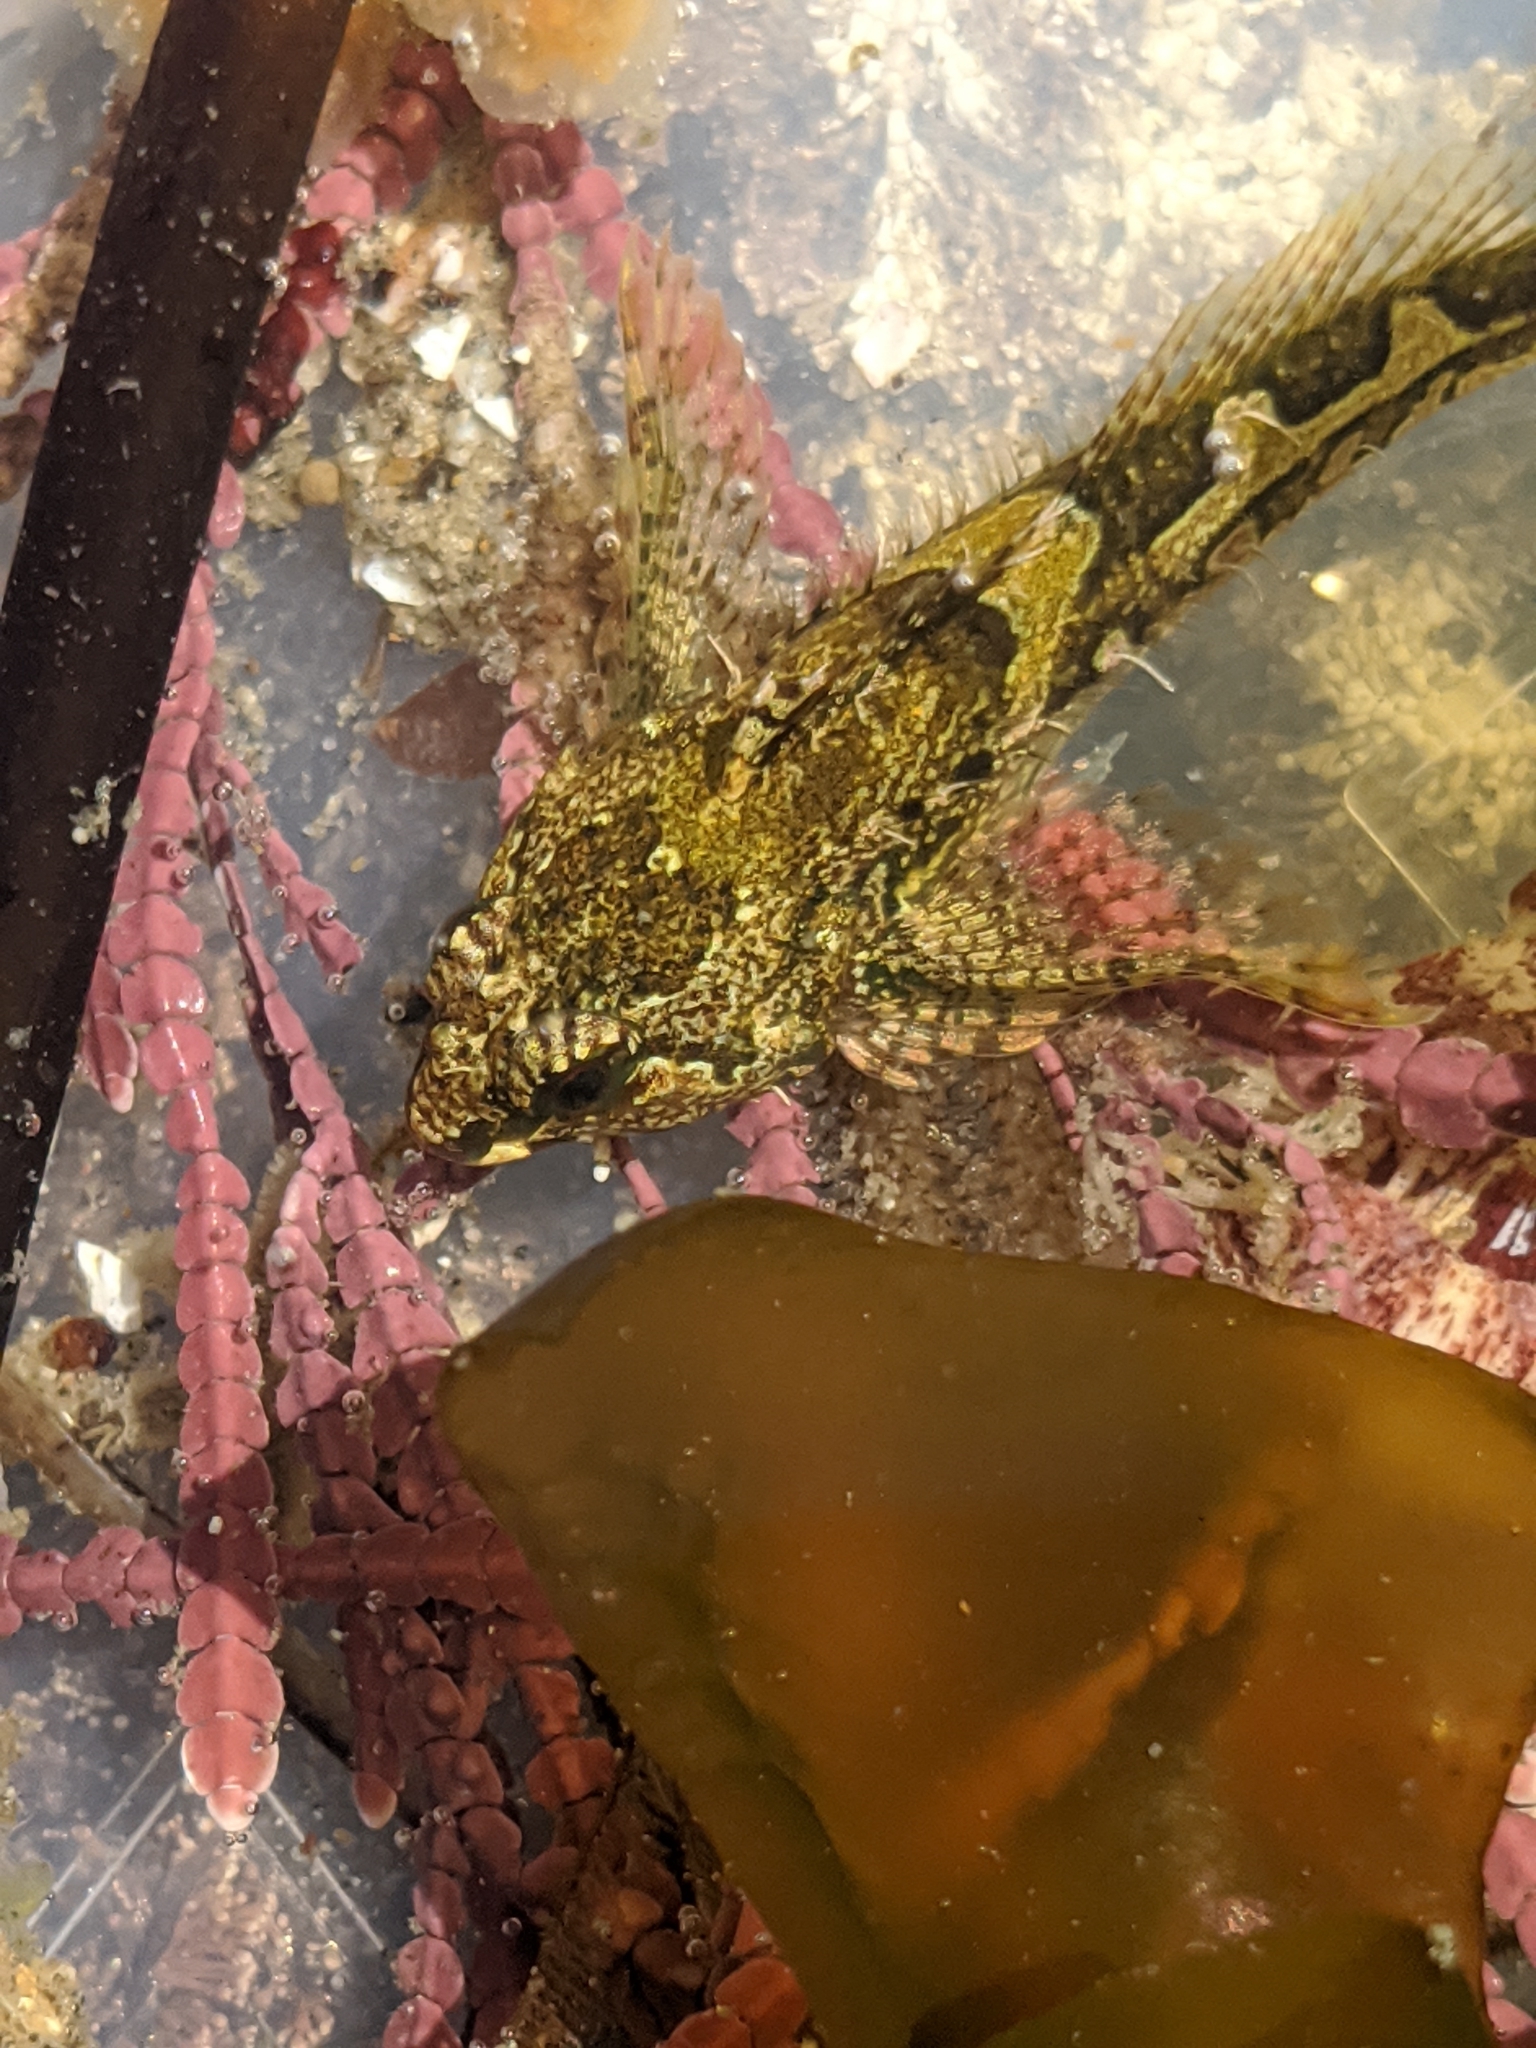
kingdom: Animalia
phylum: Chordata
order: Scorpaeniformes
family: Cottidae
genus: Oligocottus
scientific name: Oligocottus snyderi
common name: Fluffy sculpin
